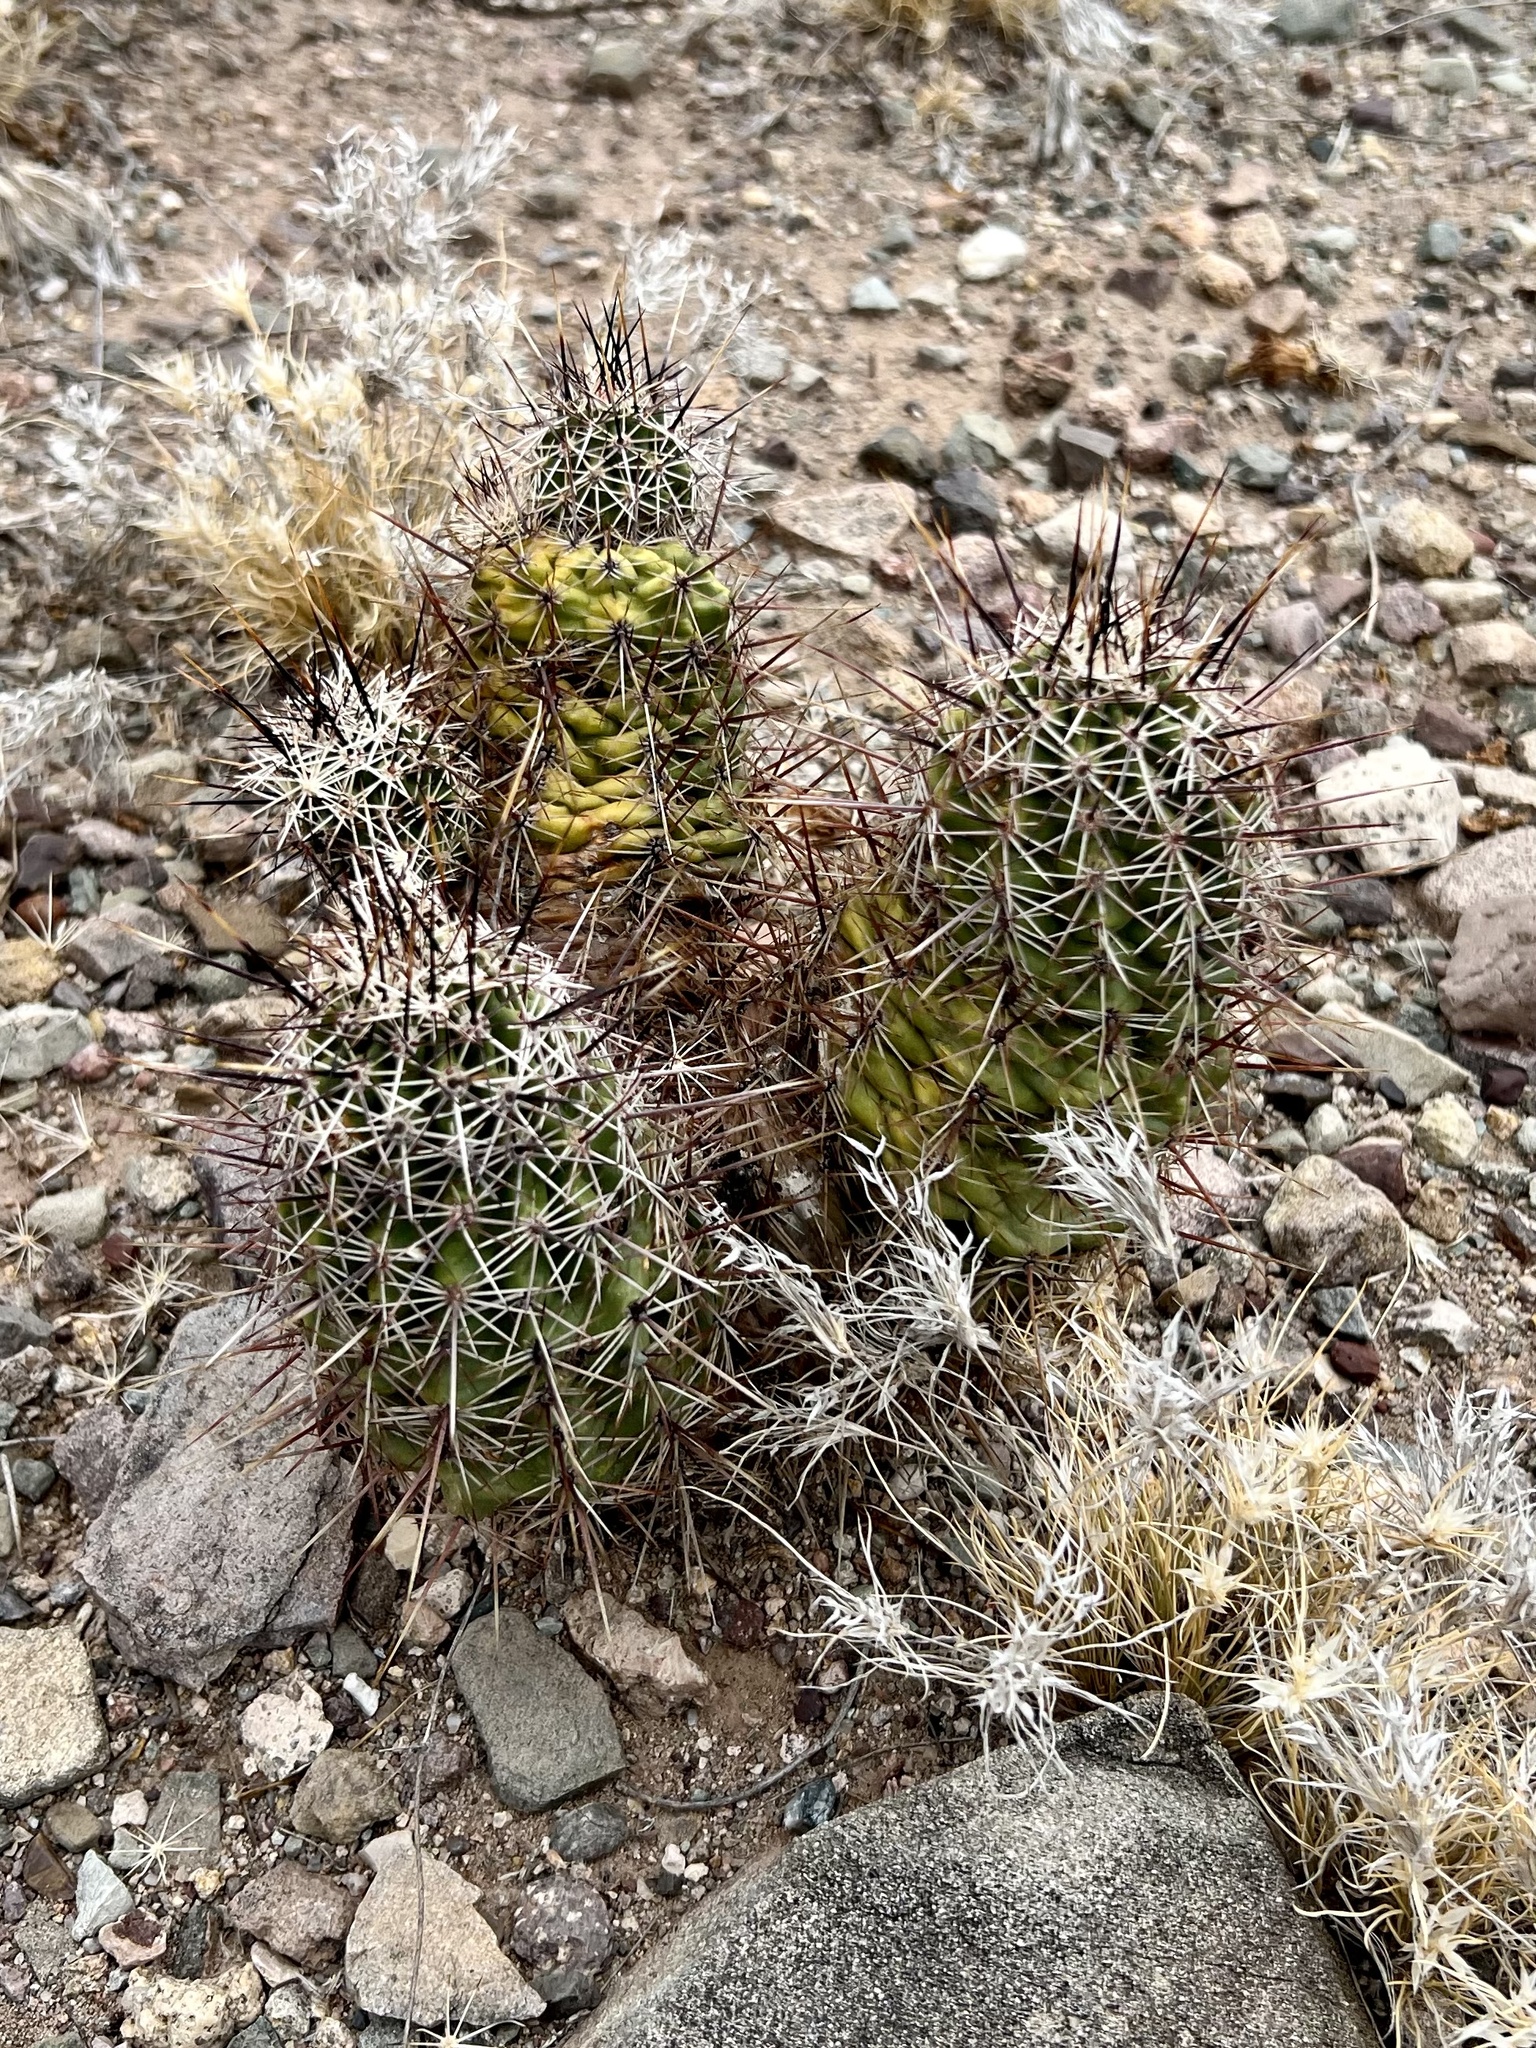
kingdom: Plantae
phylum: Tracheophyta
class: Magnoliopsida
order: Caryophyllales
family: Cactaceae
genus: Echinocereus
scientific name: Echinocereus fasciculatus
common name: Bundle hedgehog
